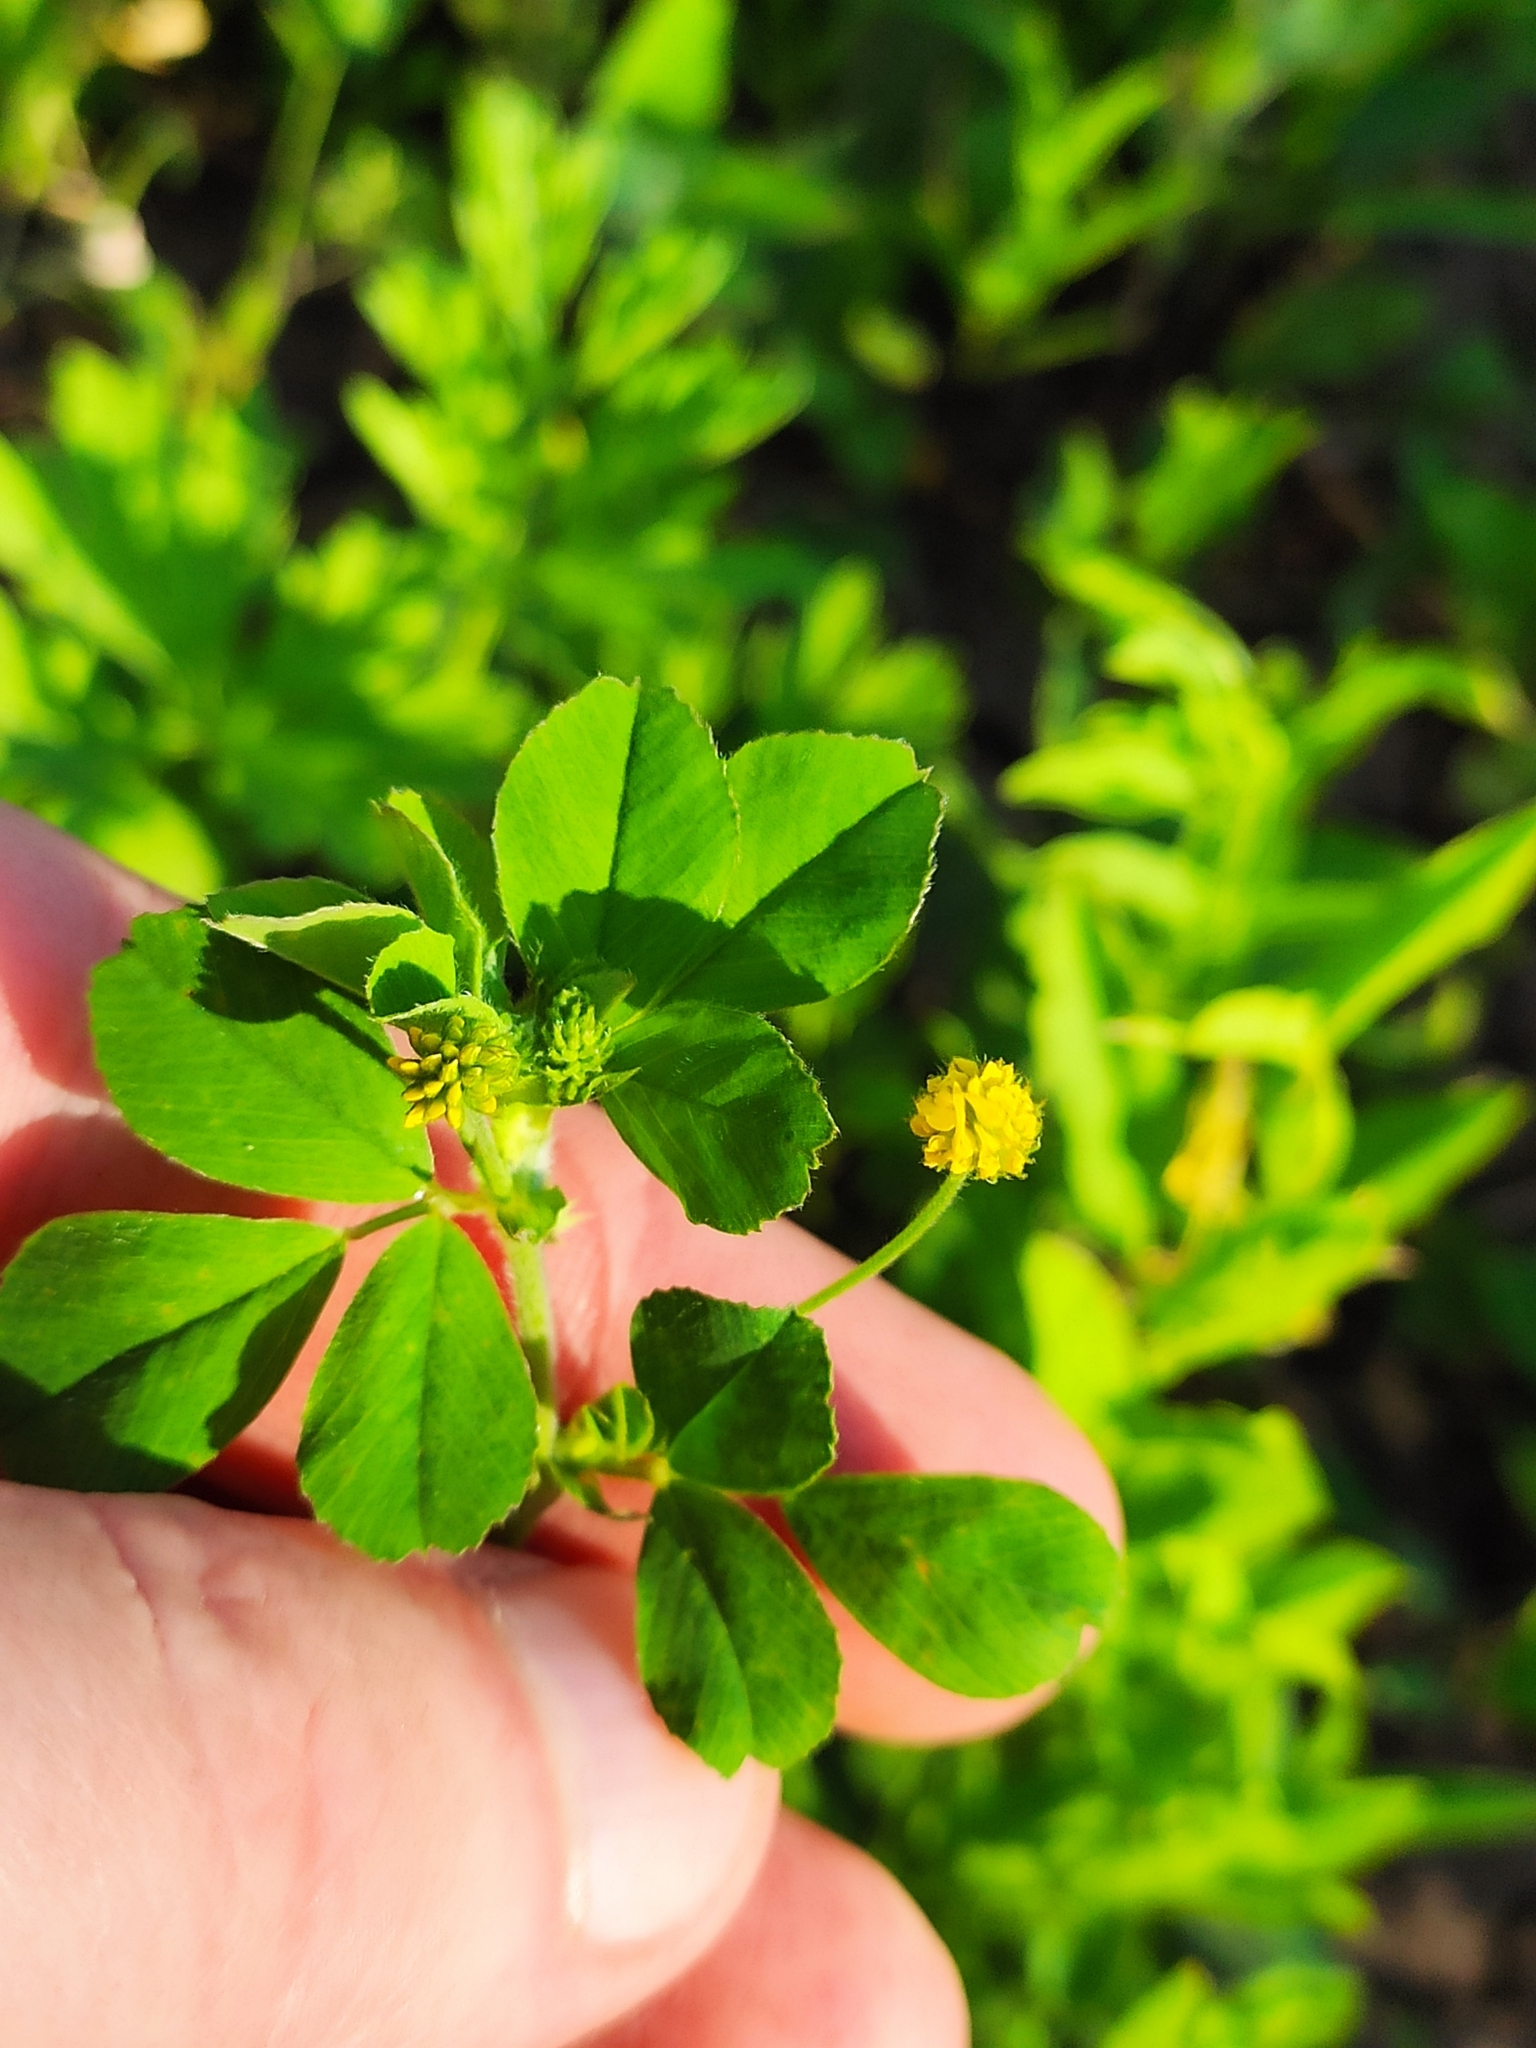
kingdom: Plantae
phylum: Tracheophyta
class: Magnoliopsida
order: Fabales
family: Fabaceae
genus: Medicago
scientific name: Medicago lupulina
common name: Black medick
